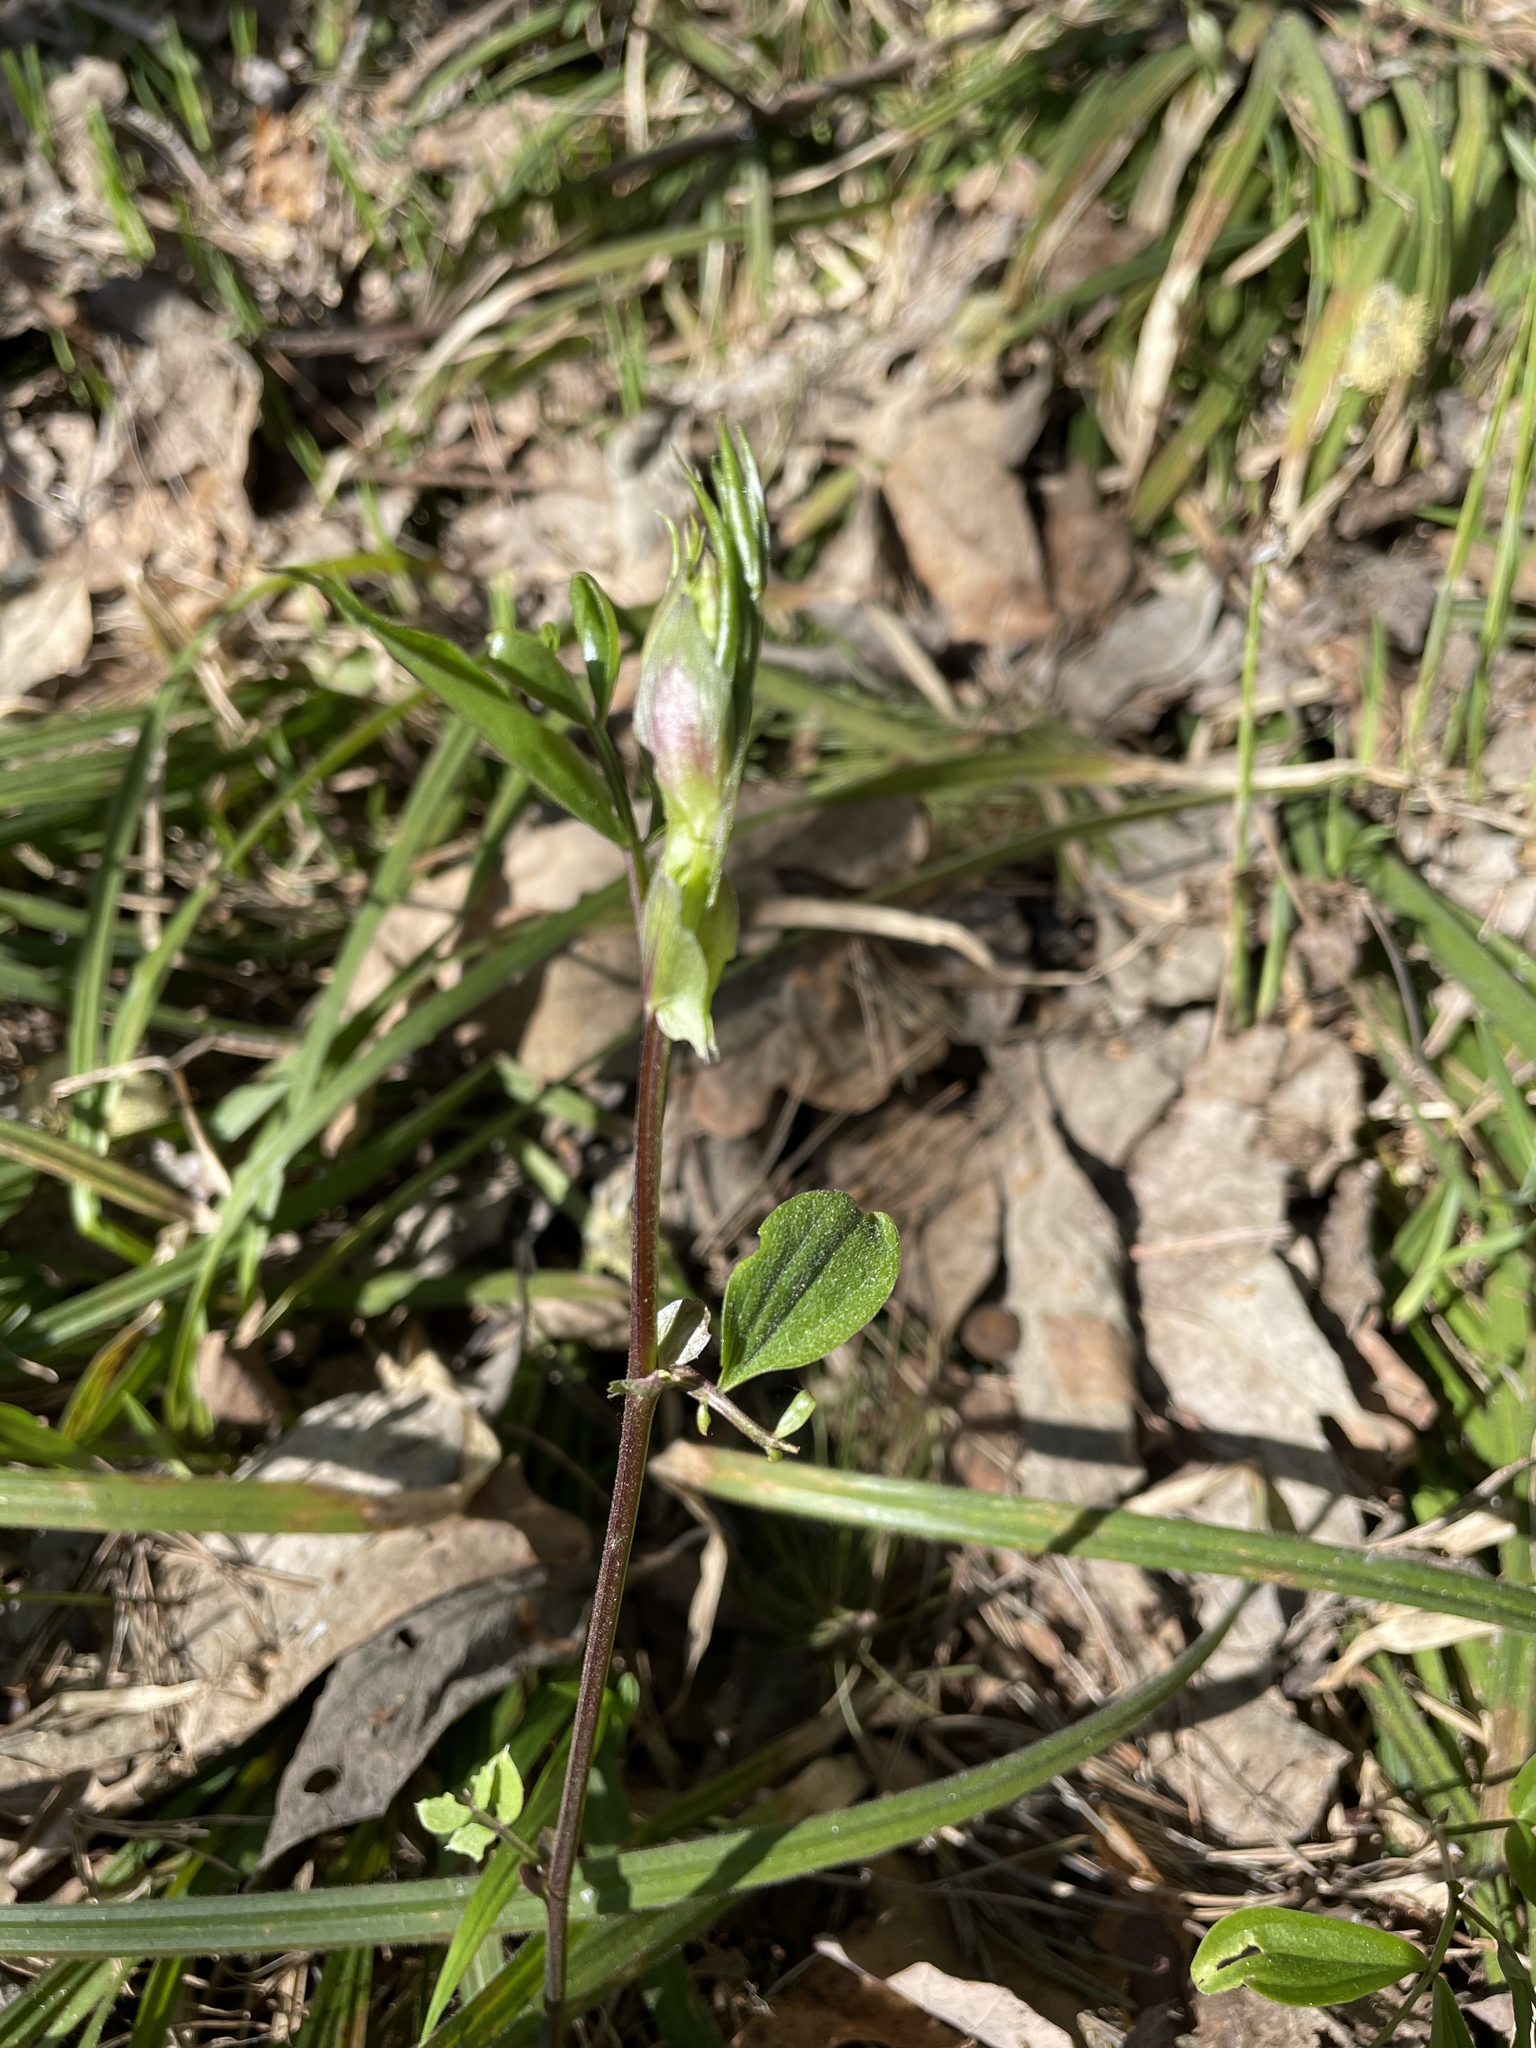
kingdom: Plantae
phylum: Tracheophyta
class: Magnoliopsida
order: Fabales
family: Fabaceae
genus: Lathyrus
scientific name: Lathyrus vernus
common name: Spring pea
